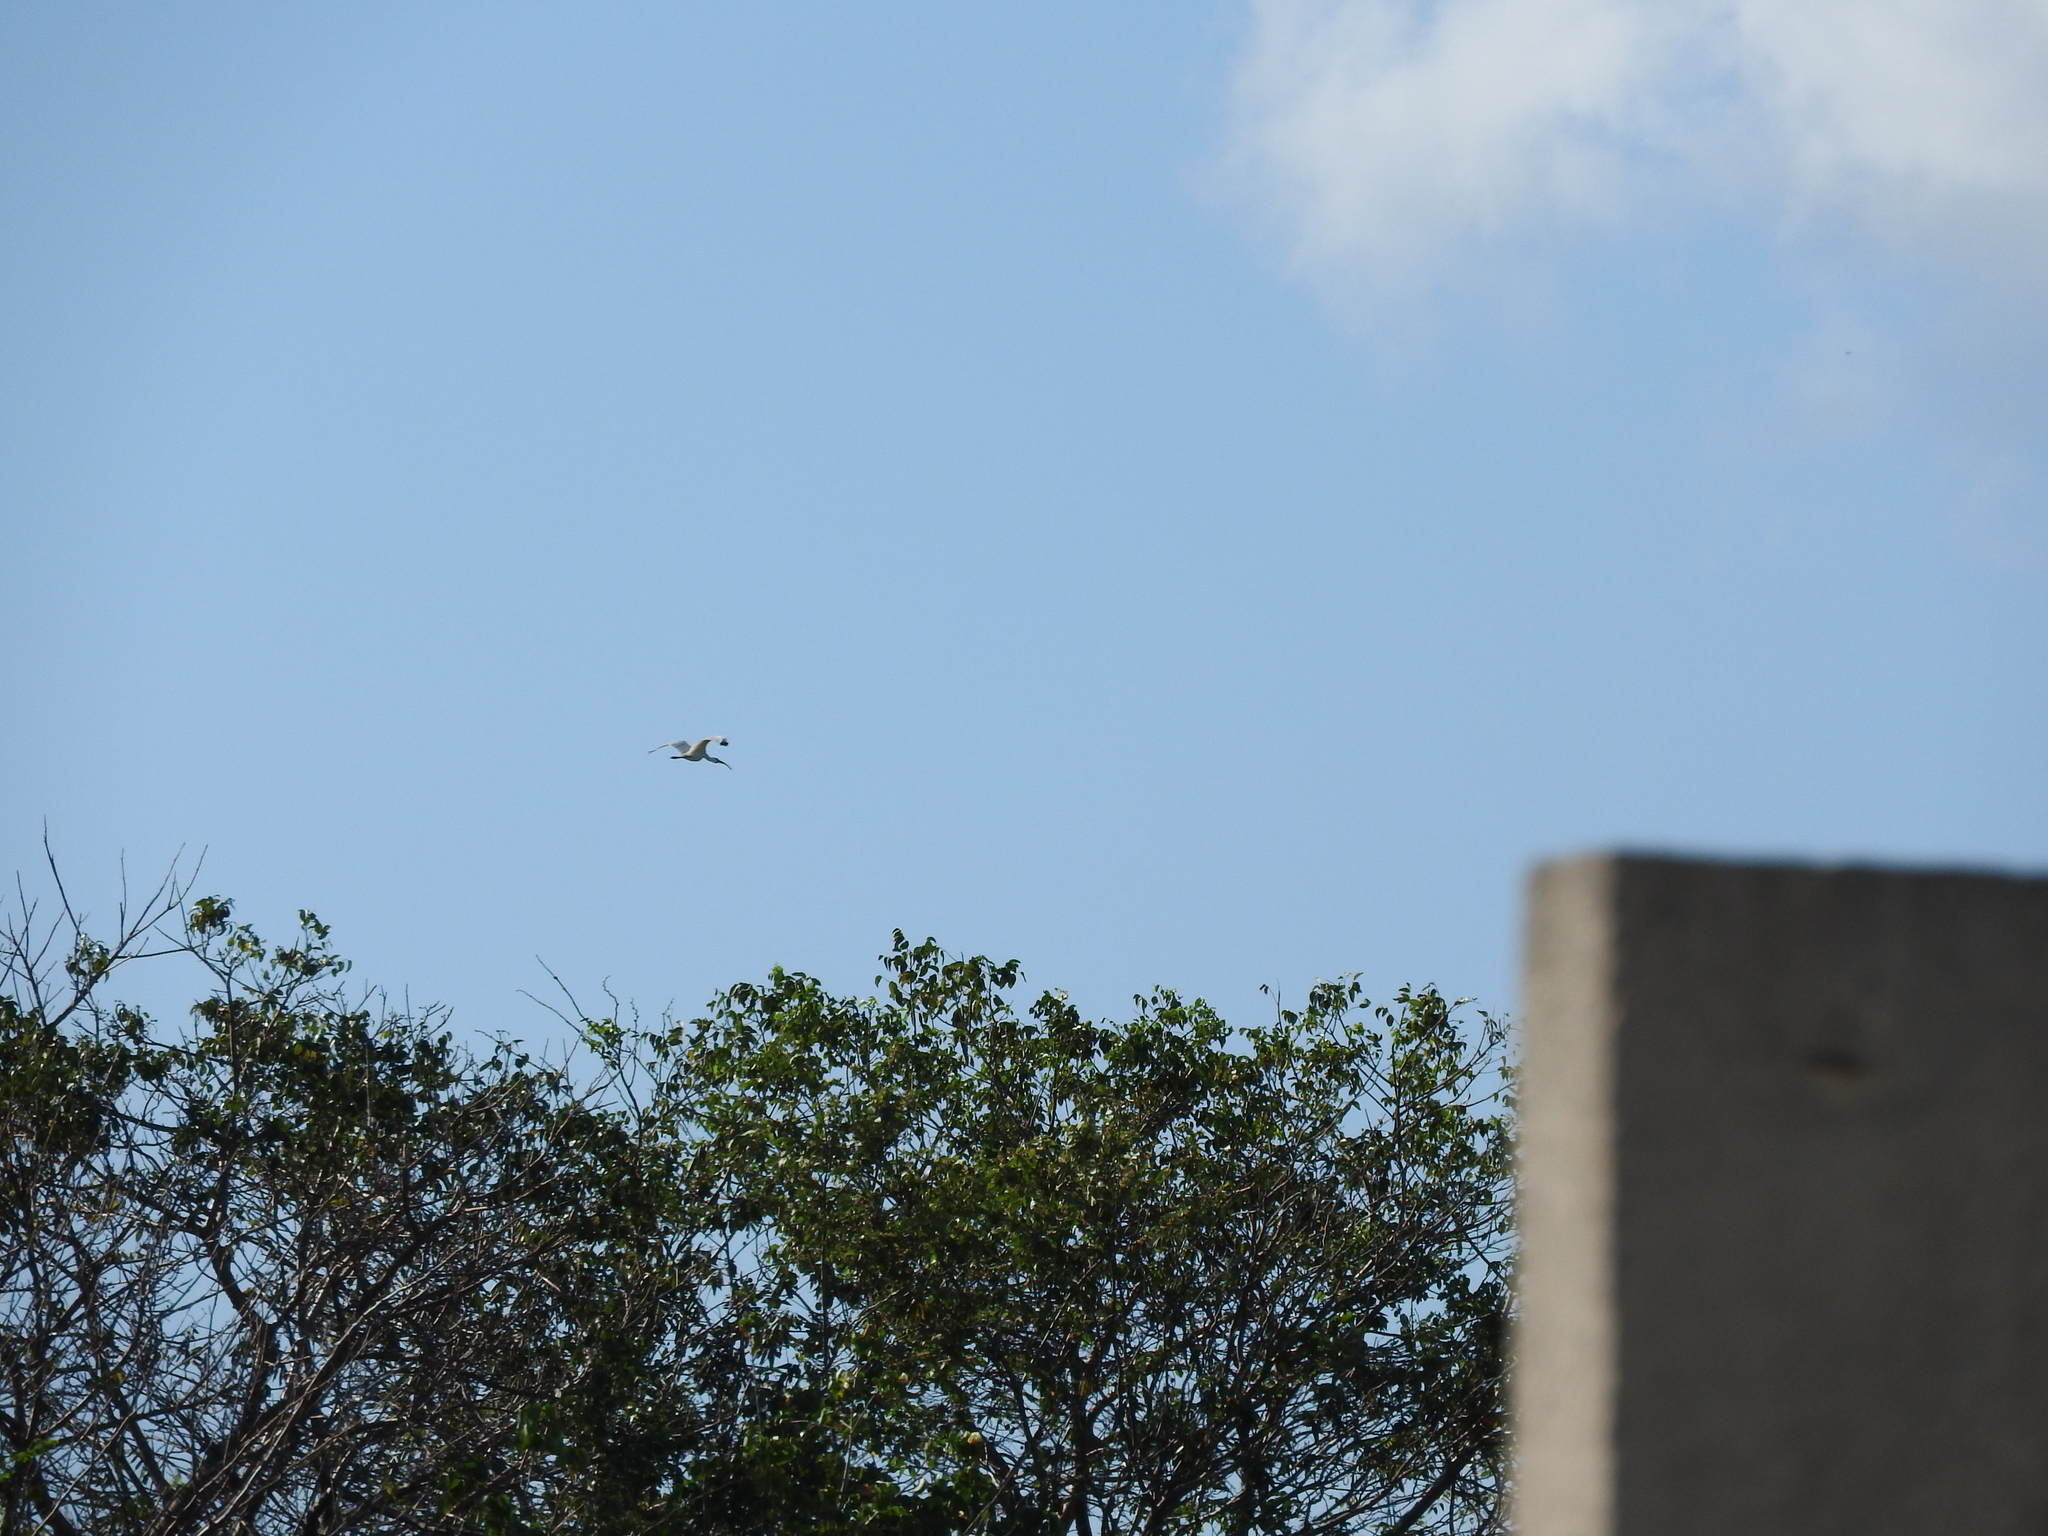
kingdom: Animalia
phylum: Chordata
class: Aves
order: Pelecaniformes
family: Threskiornithidae
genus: Eudocimus
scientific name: Eudocimus albus
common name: White ibis
